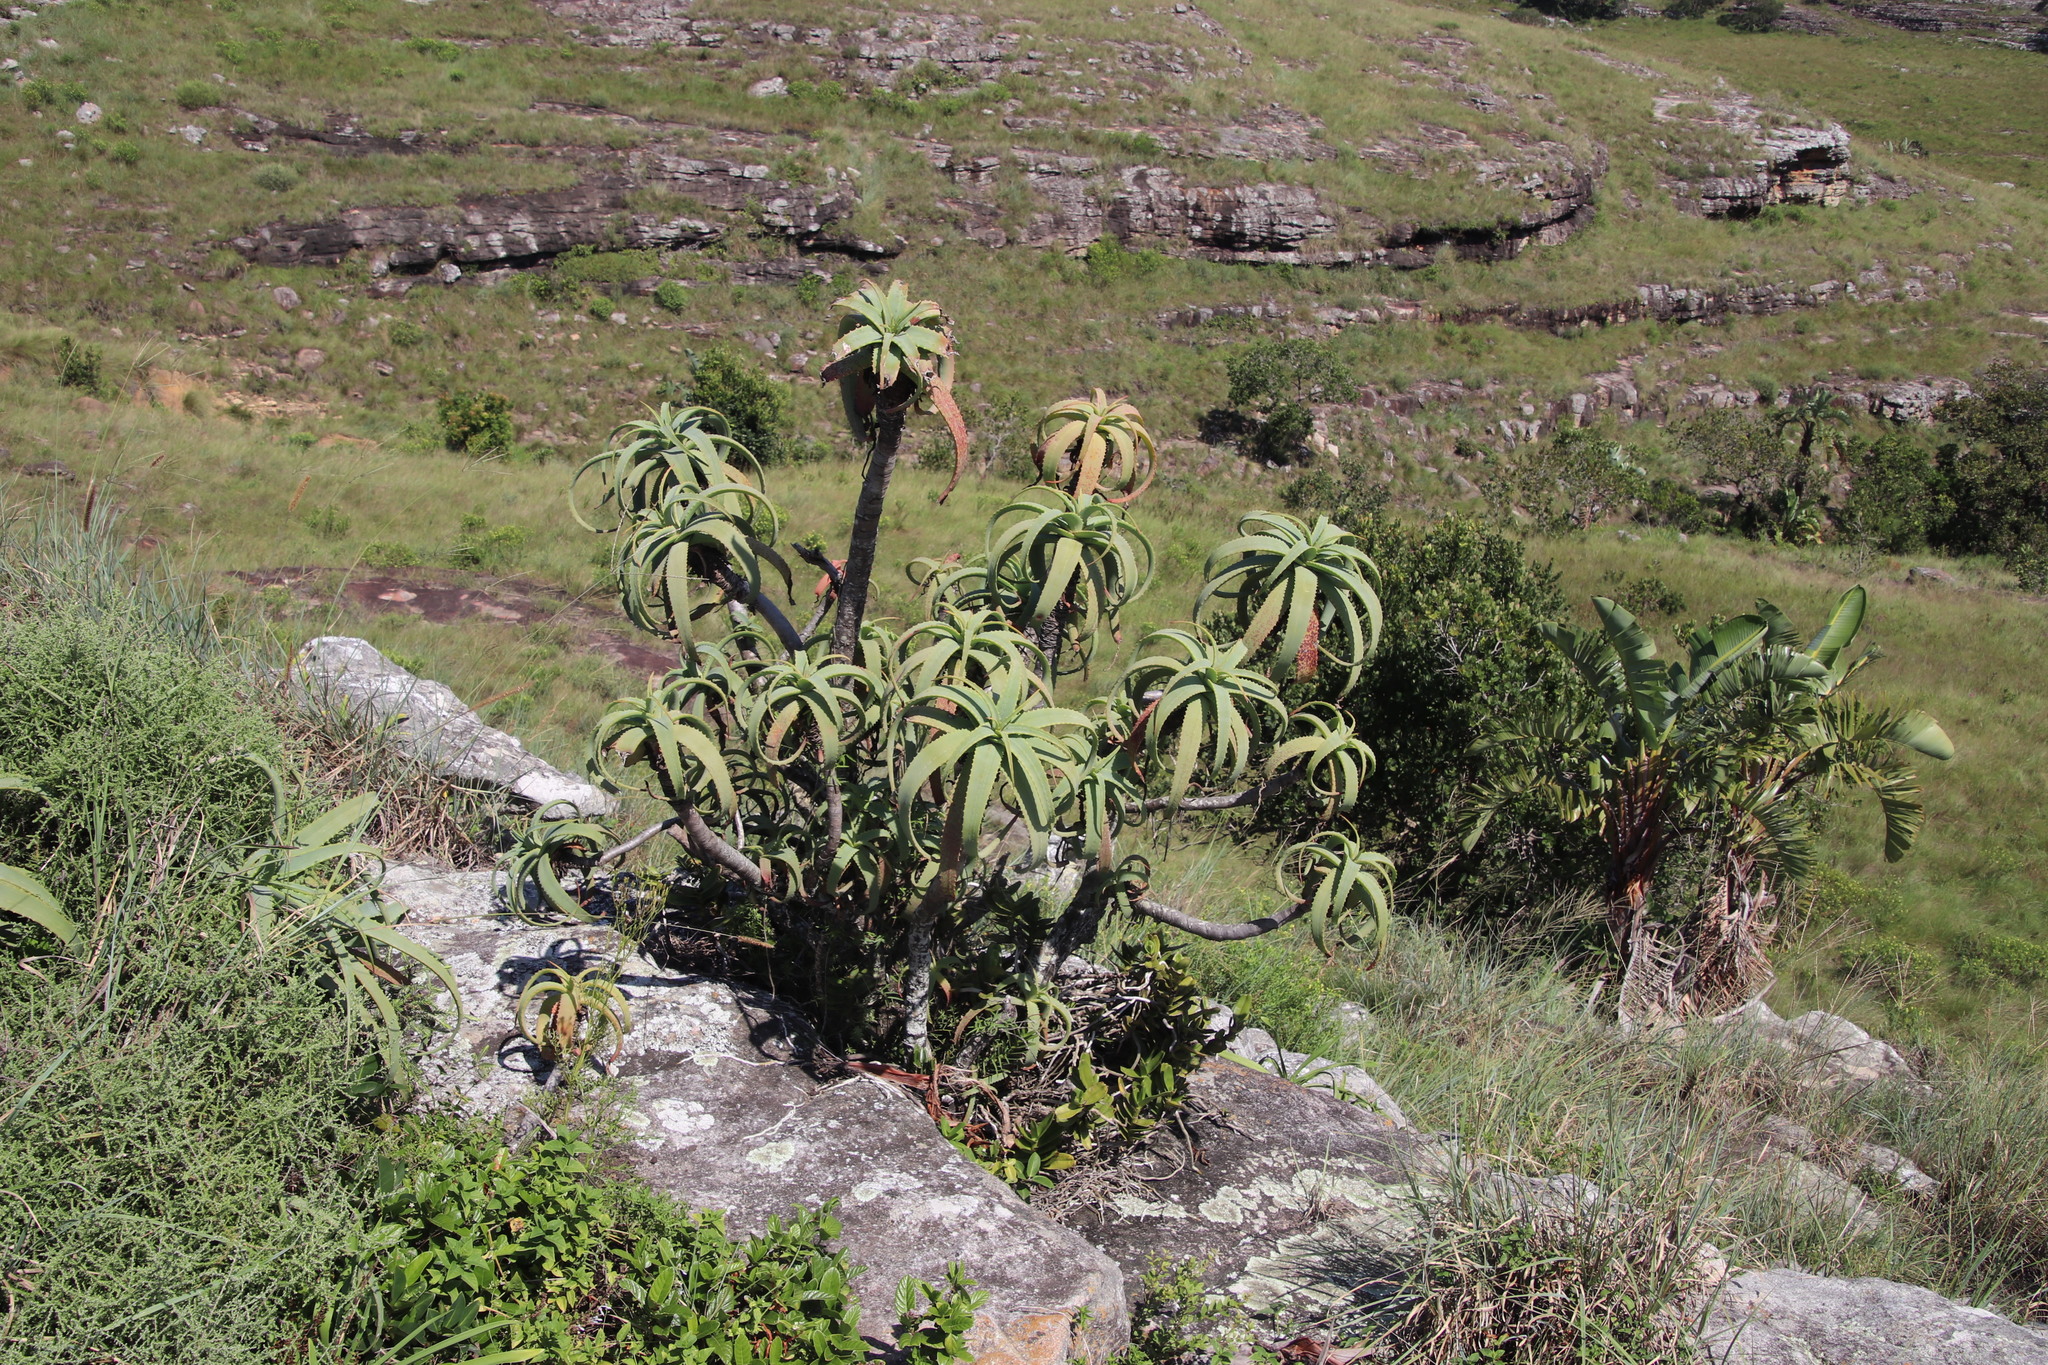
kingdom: Plantae
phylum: Tracheophyta
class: Liliopsida
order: Asparagales
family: Asphodelaceae
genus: Aloe
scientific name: Aloe arborescens
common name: Candelabra aloe
